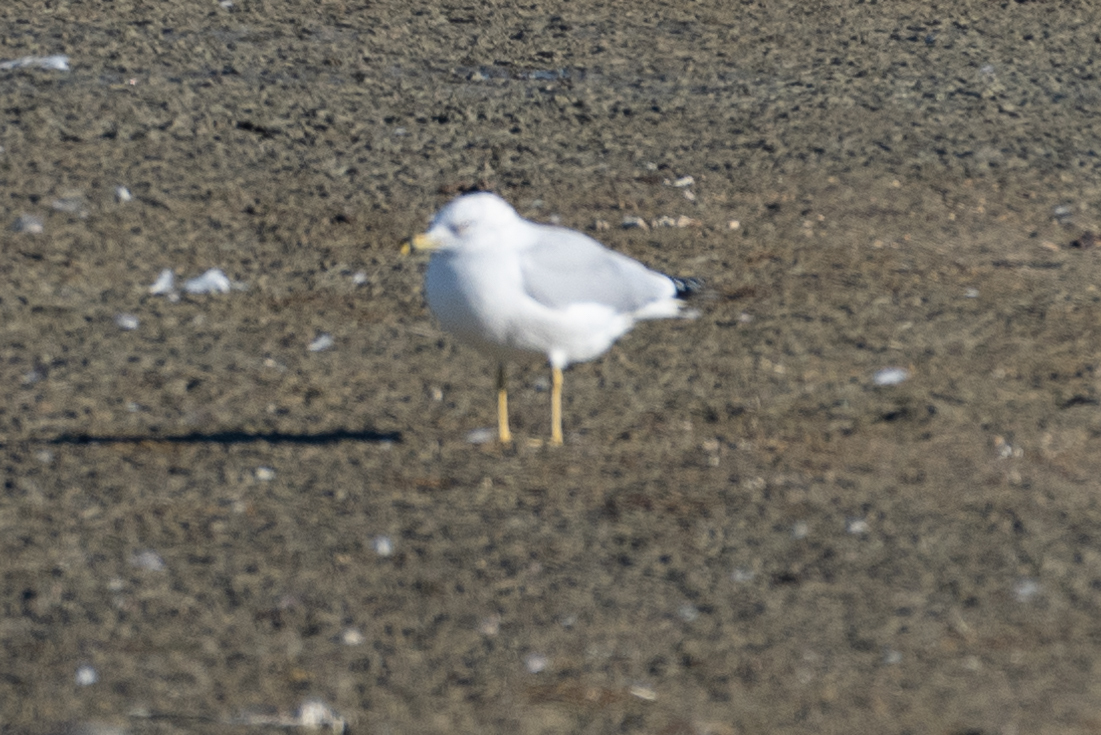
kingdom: Animalia
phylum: Chordata
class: Aves
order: Charadriiformes
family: Laridae
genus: Larus
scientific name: Larus delawarensis
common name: Ring-billed gull
